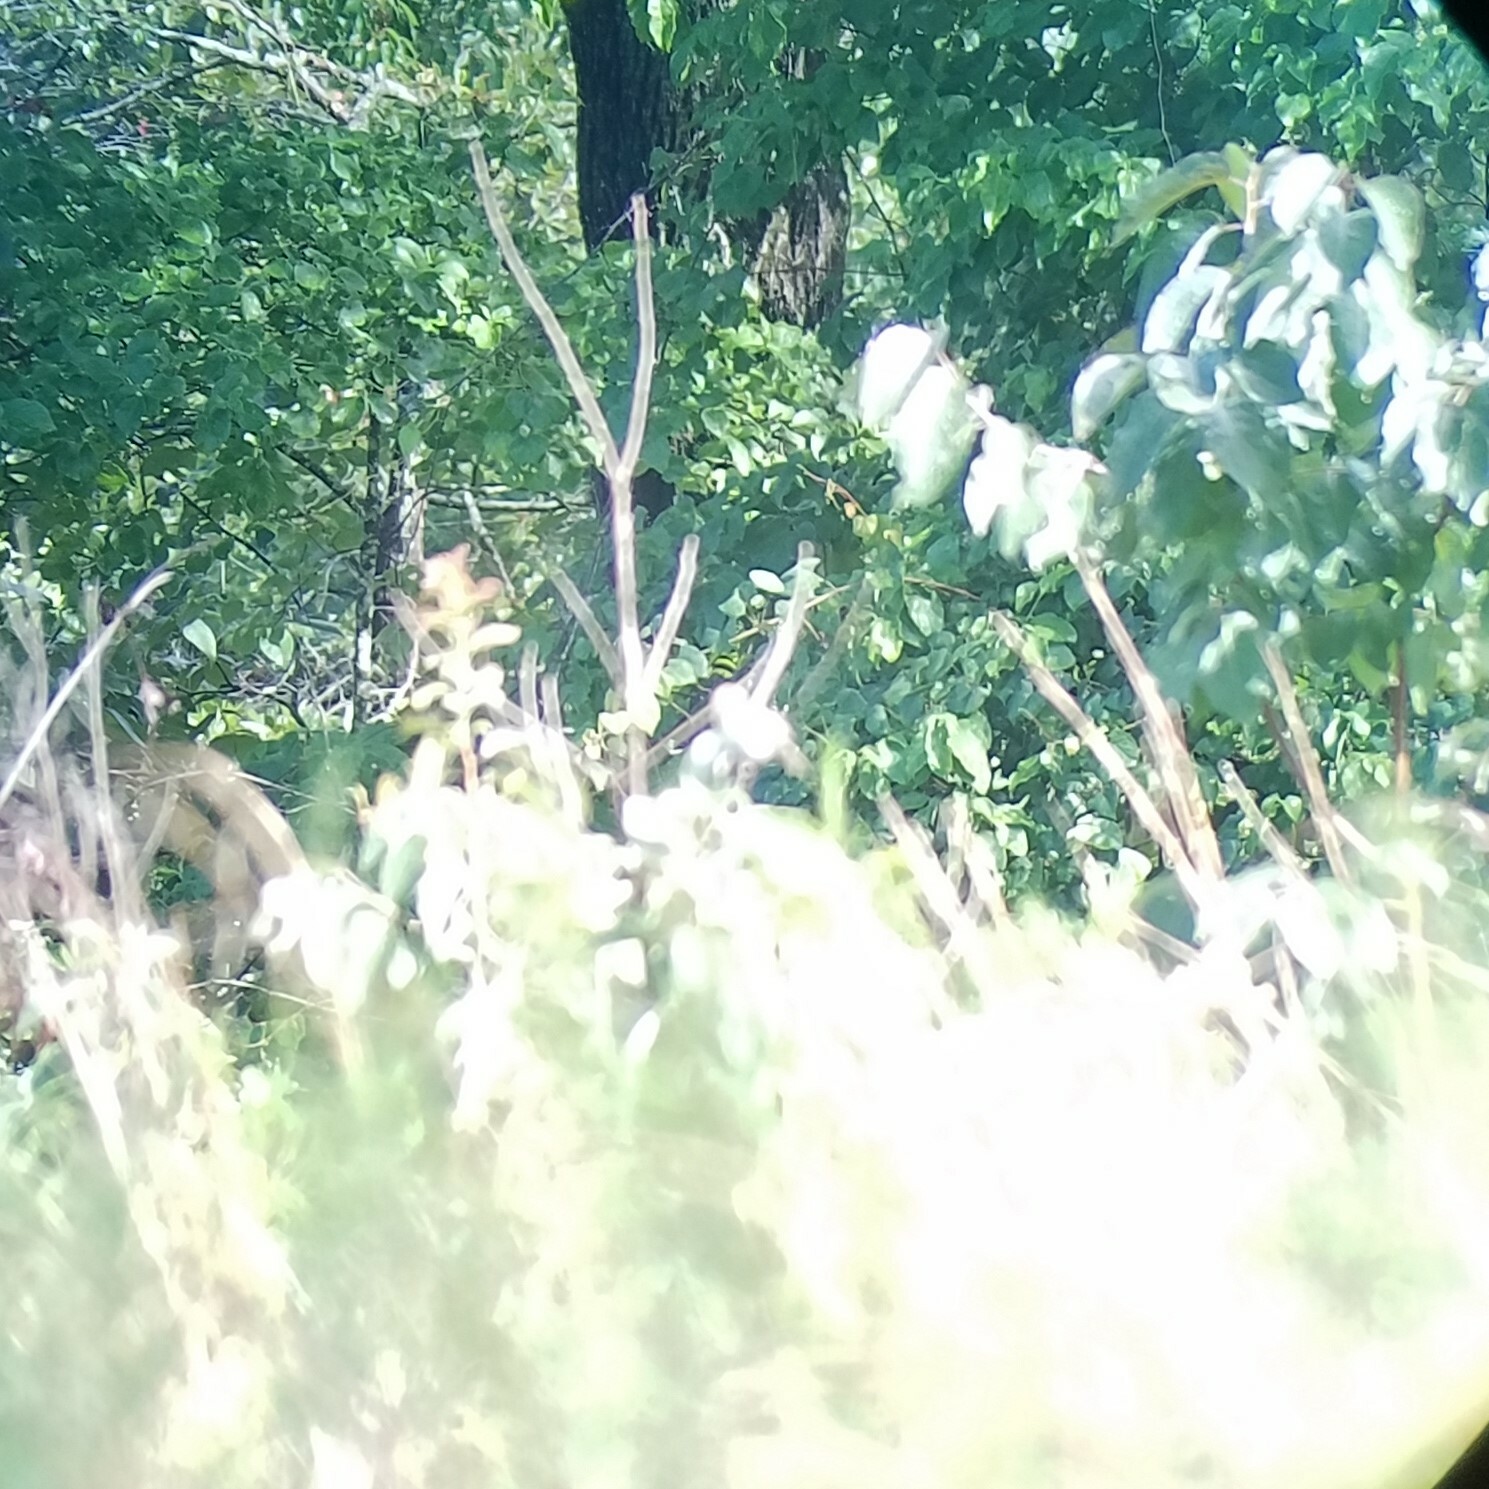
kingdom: Animalia
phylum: Chordata
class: Aves
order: Passeriformes
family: Passerellidae
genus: Peucaea
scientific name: Peucaea aestivalis
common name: Bachman's sparrow
